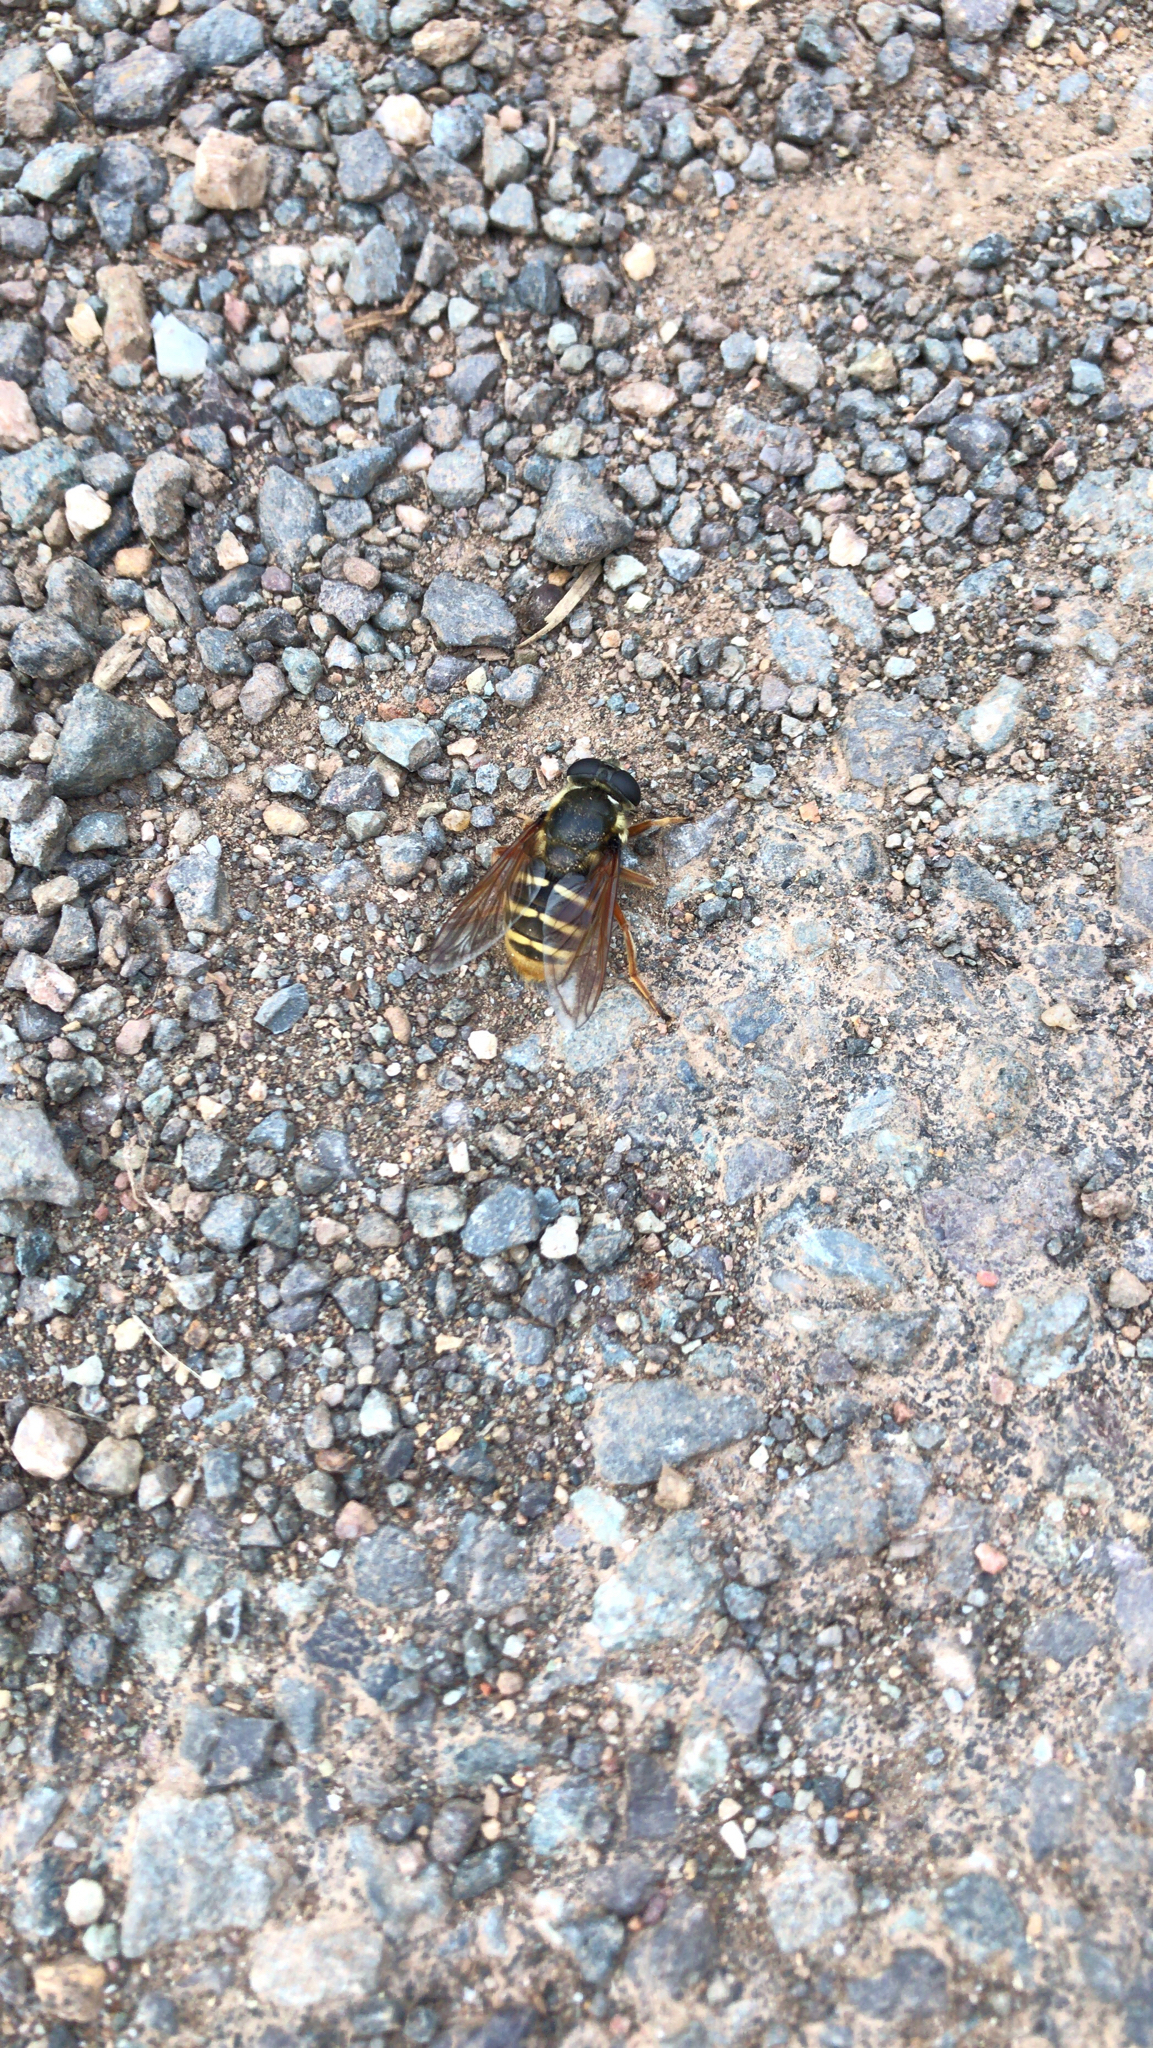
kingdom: Animalia
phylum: Arthropoda
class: Insecta
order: Diptera
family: Syrphidae
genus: Sericomyia
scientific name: Sericomyia silentis
